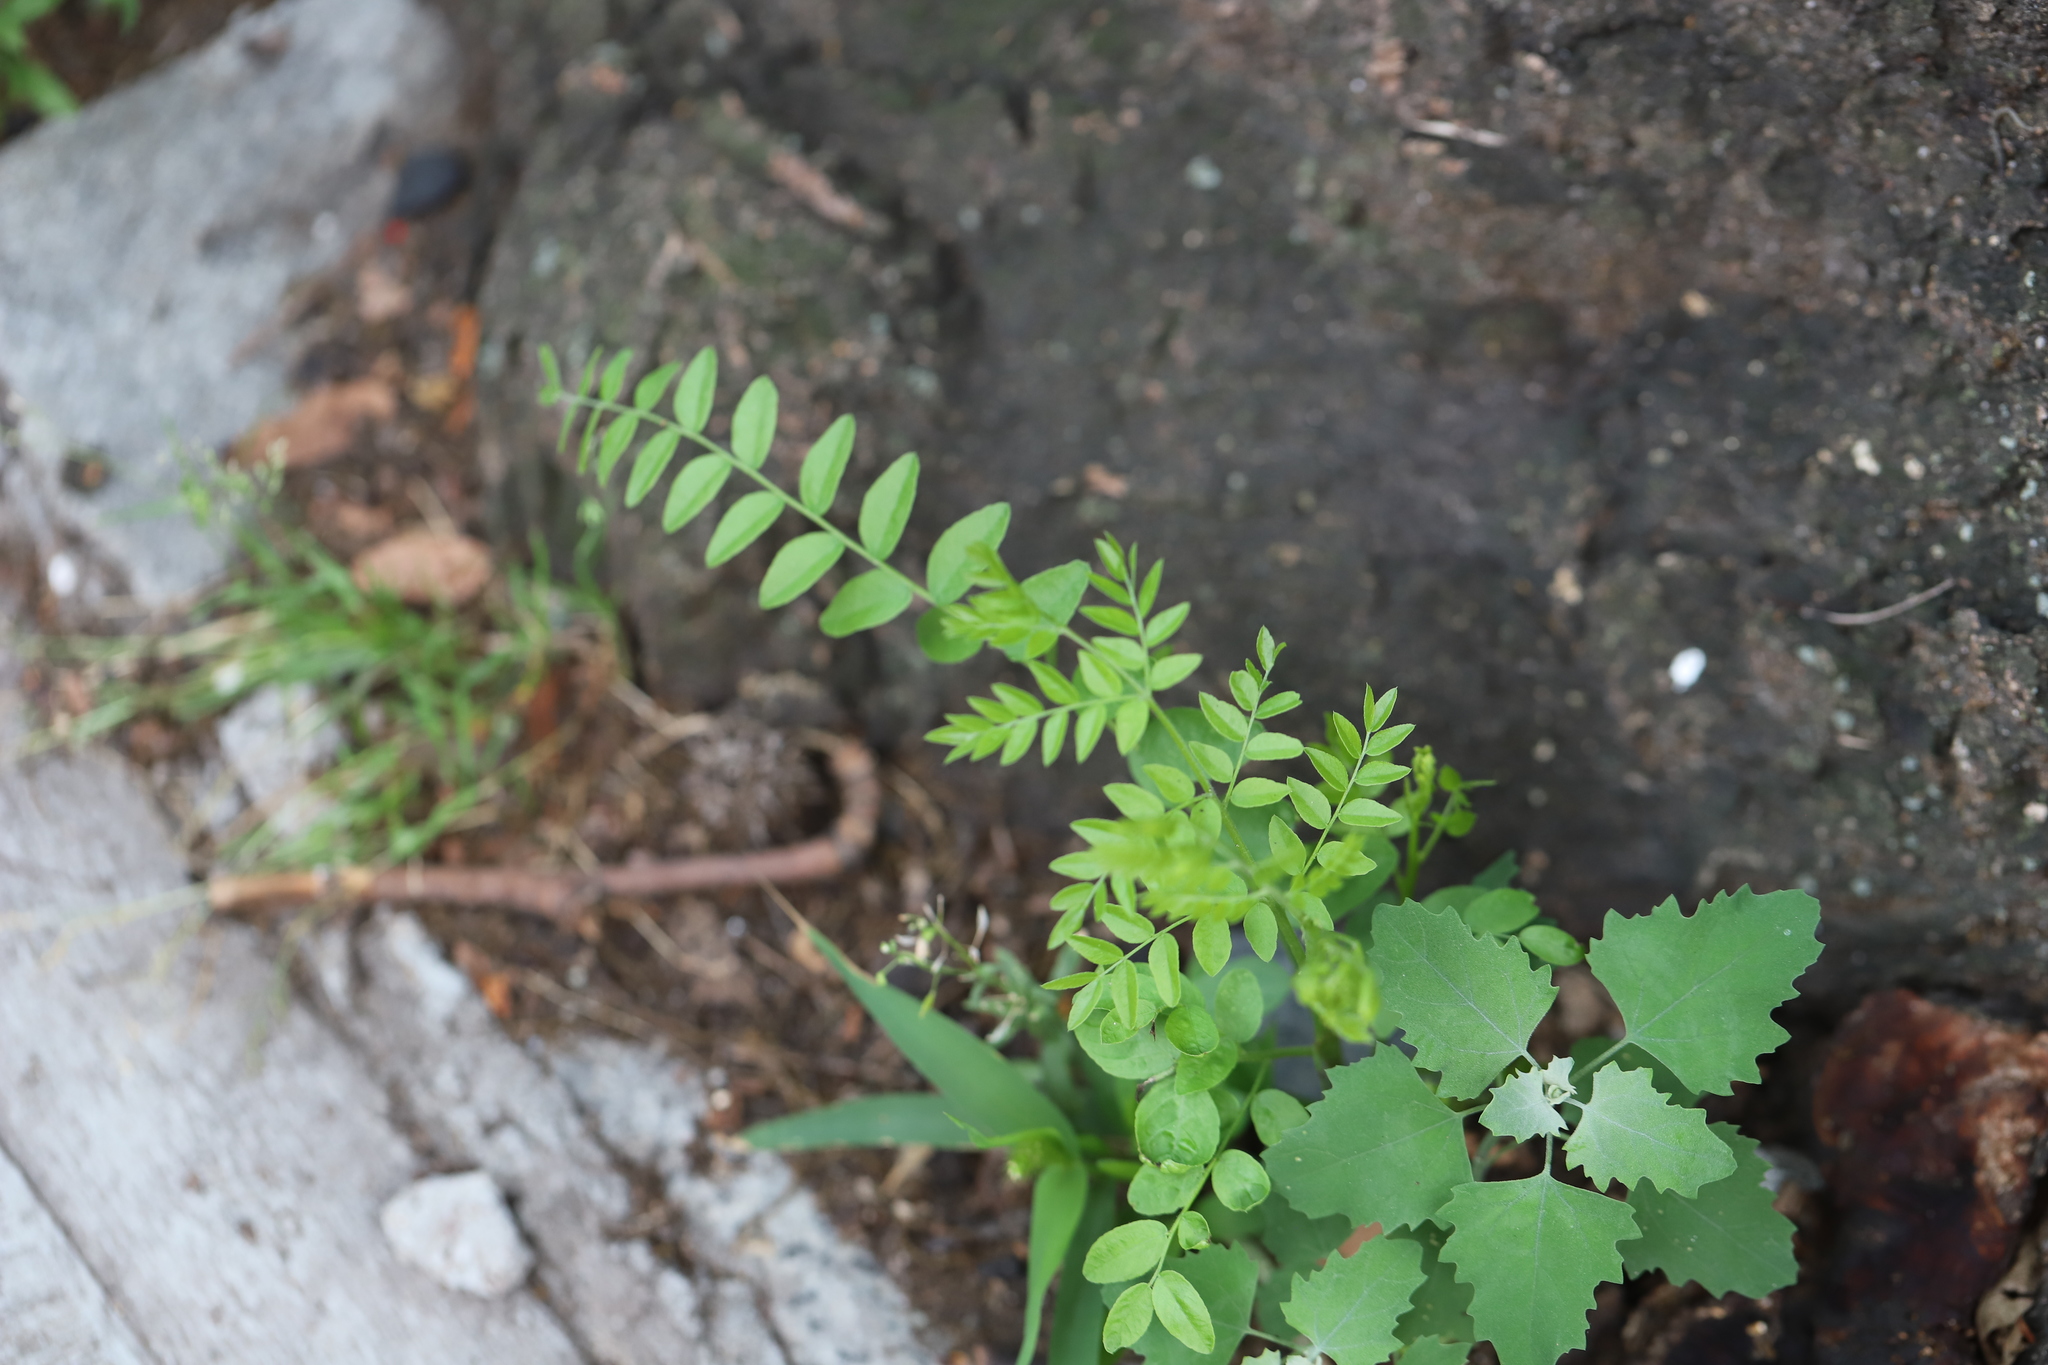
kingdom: Plantae
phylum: Tracheophyta
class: Magnoliopsida
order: Fabales
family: Fabaceae
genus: Gleditsia
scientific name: Gleditsia triacanthos
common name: Common honeylocust
